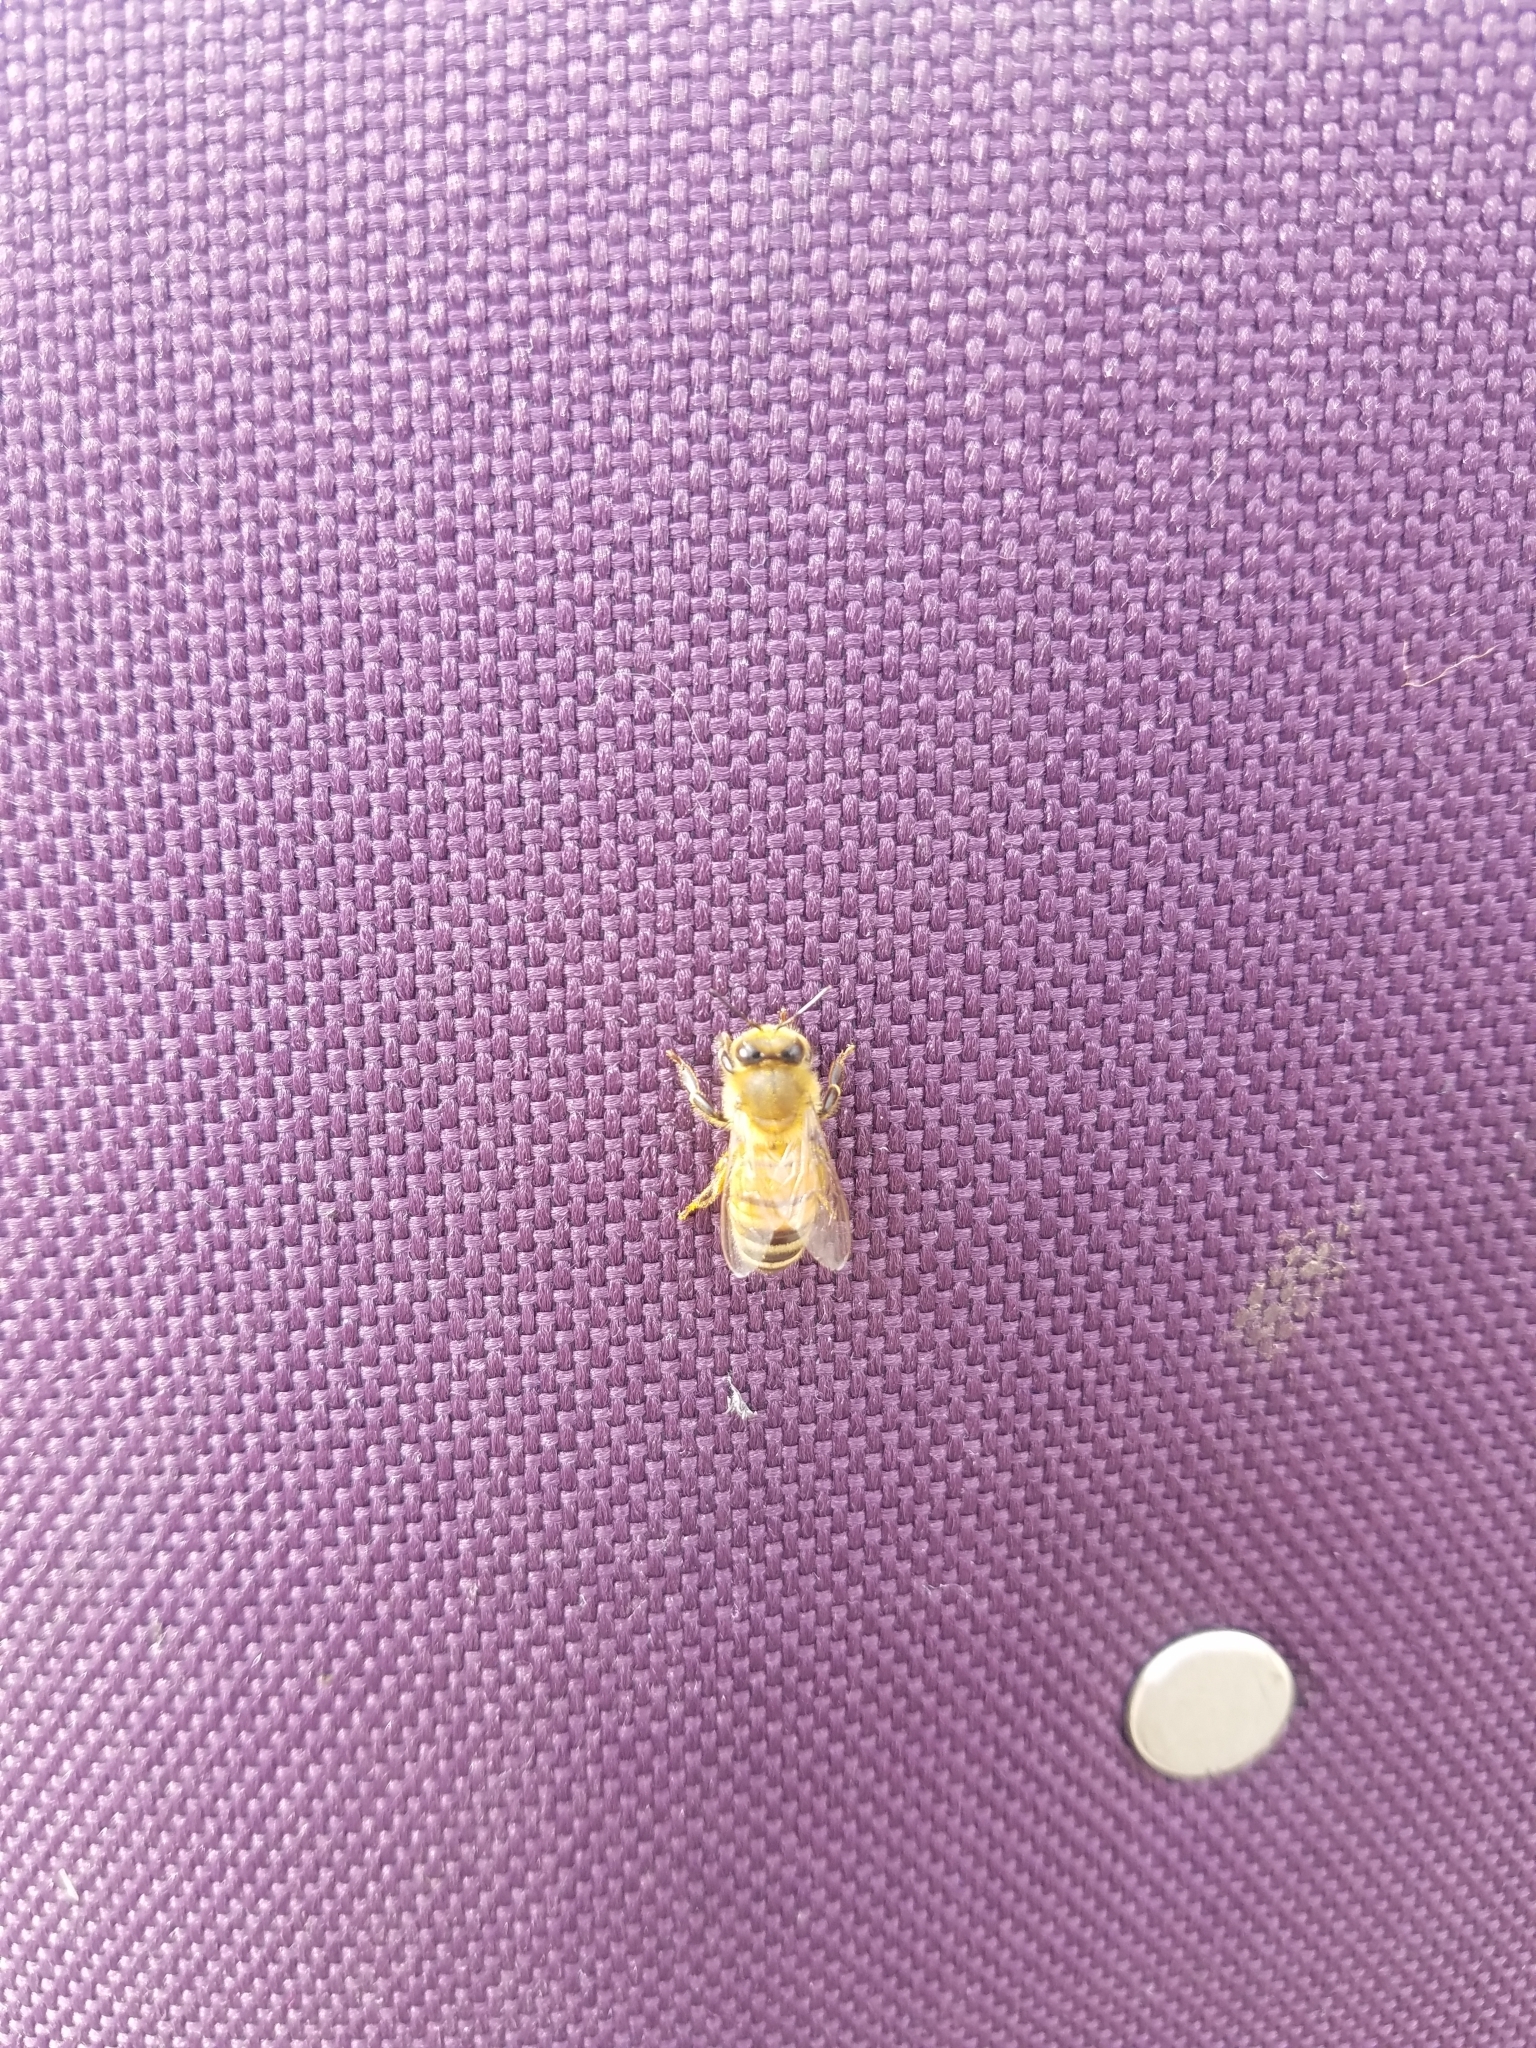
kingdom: Animalia
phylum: Arthropoda
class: Insecta
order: Hymenoptera
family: Apidae
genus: Apis
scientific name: Apis mellifera
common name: Honey bee
